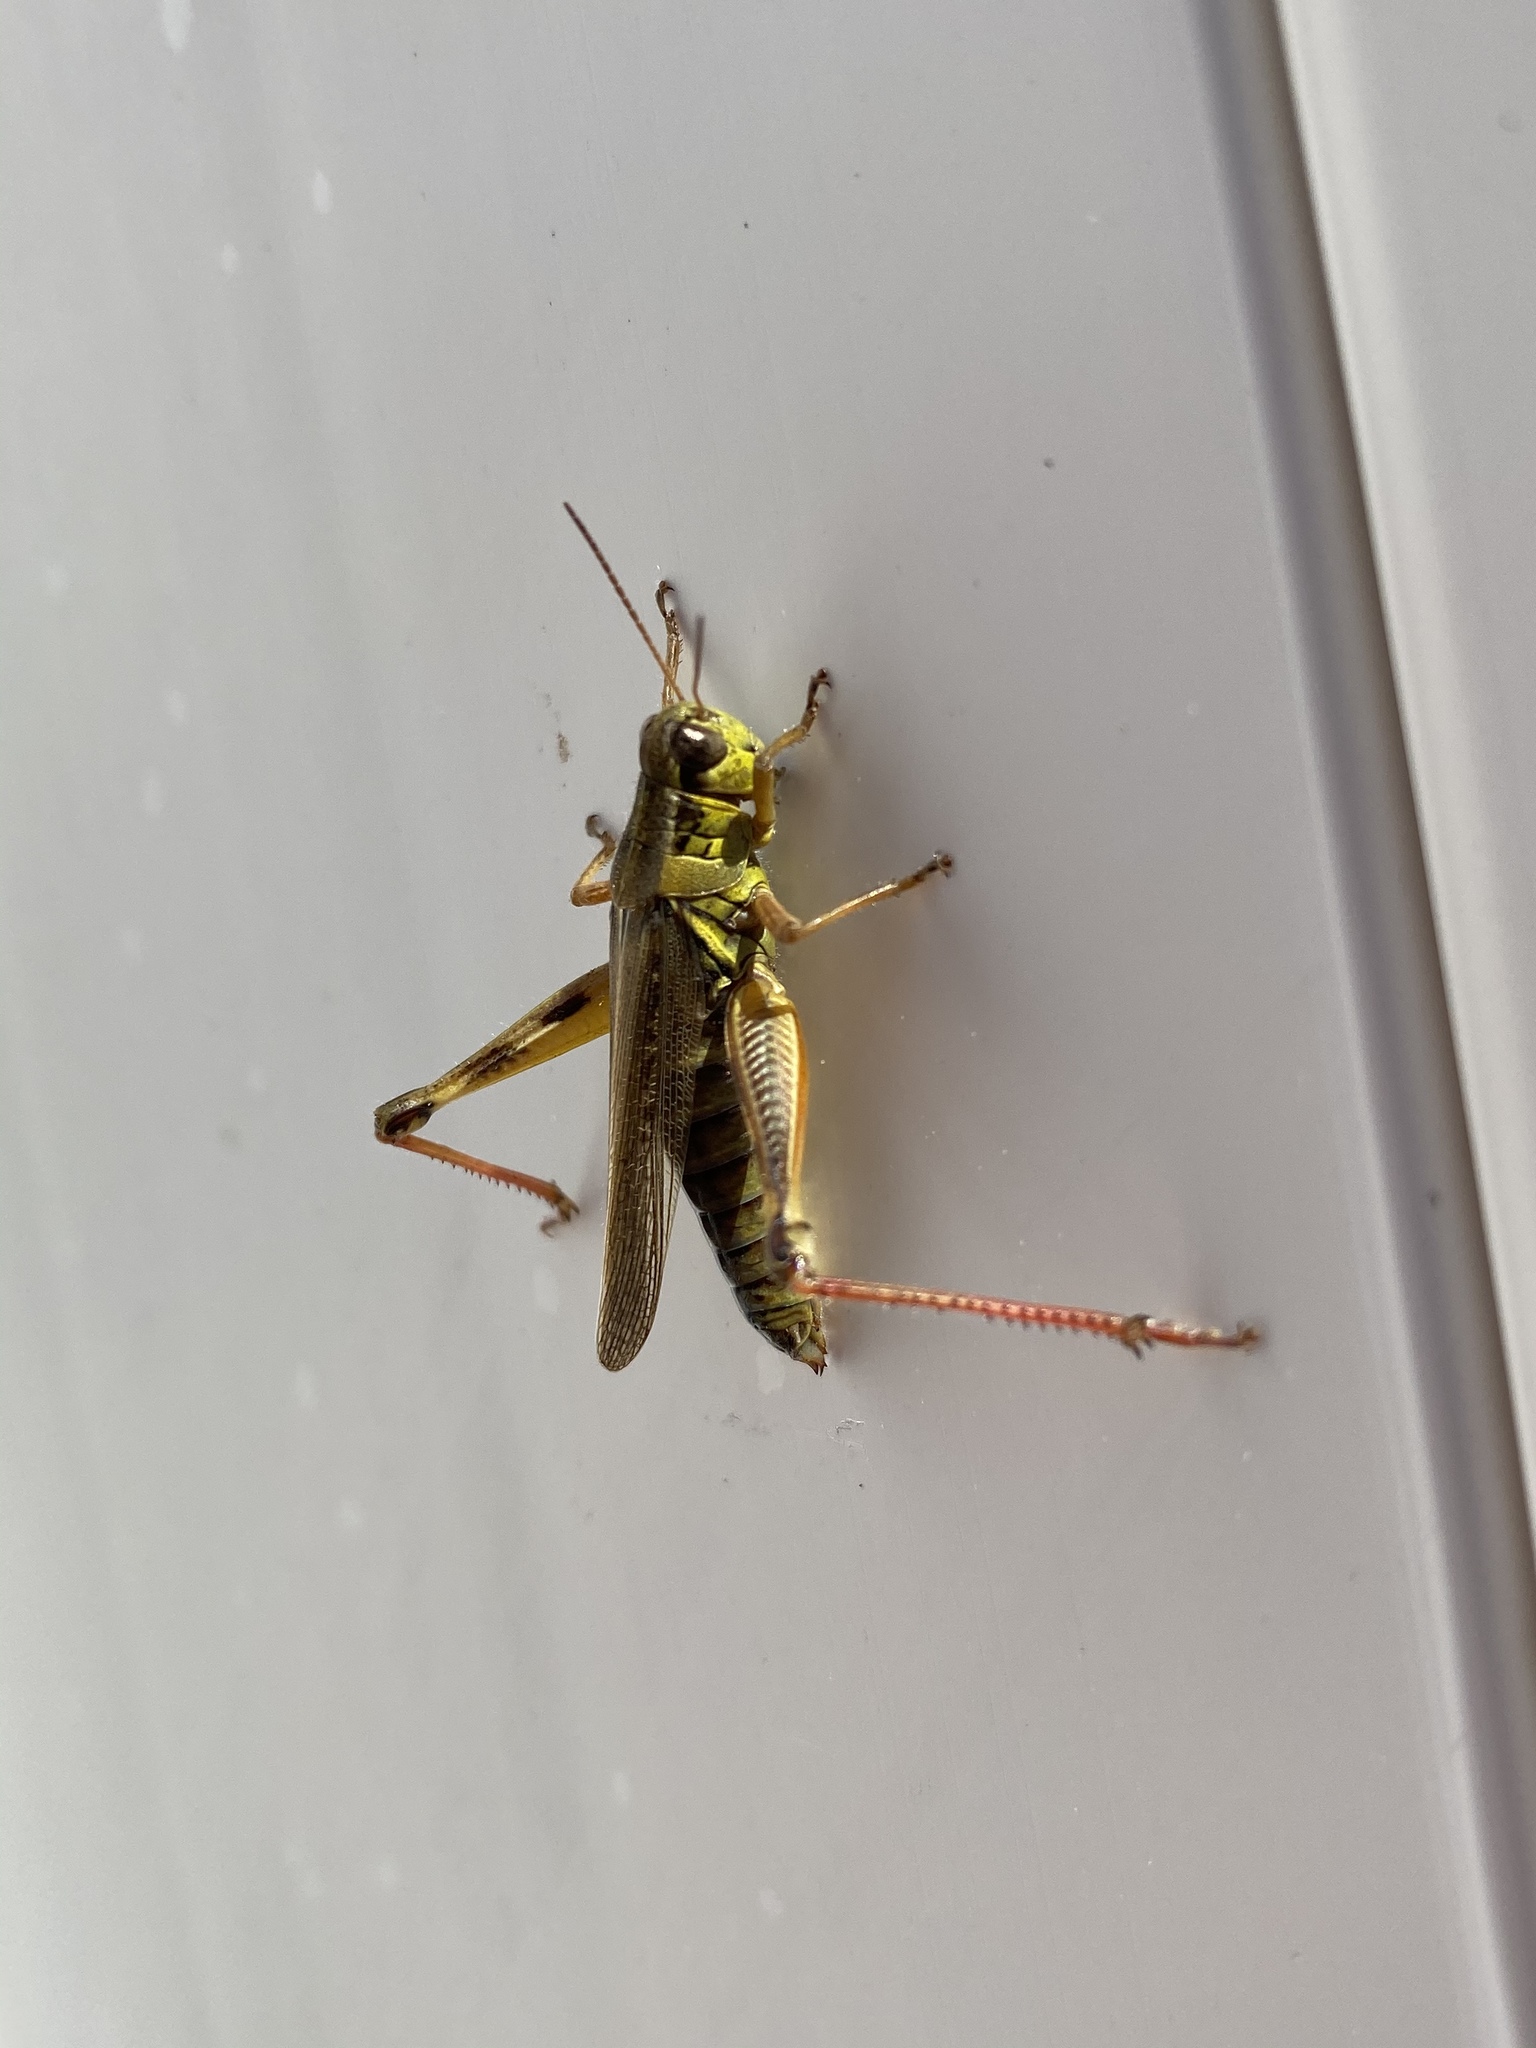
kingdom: Animalia
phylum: Arthropoda
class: Insecta
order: Orthoptera
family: Acrididae
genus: Melanoplus
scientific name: Melanoplus femurrubrum
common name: Red-legged grasshopper
